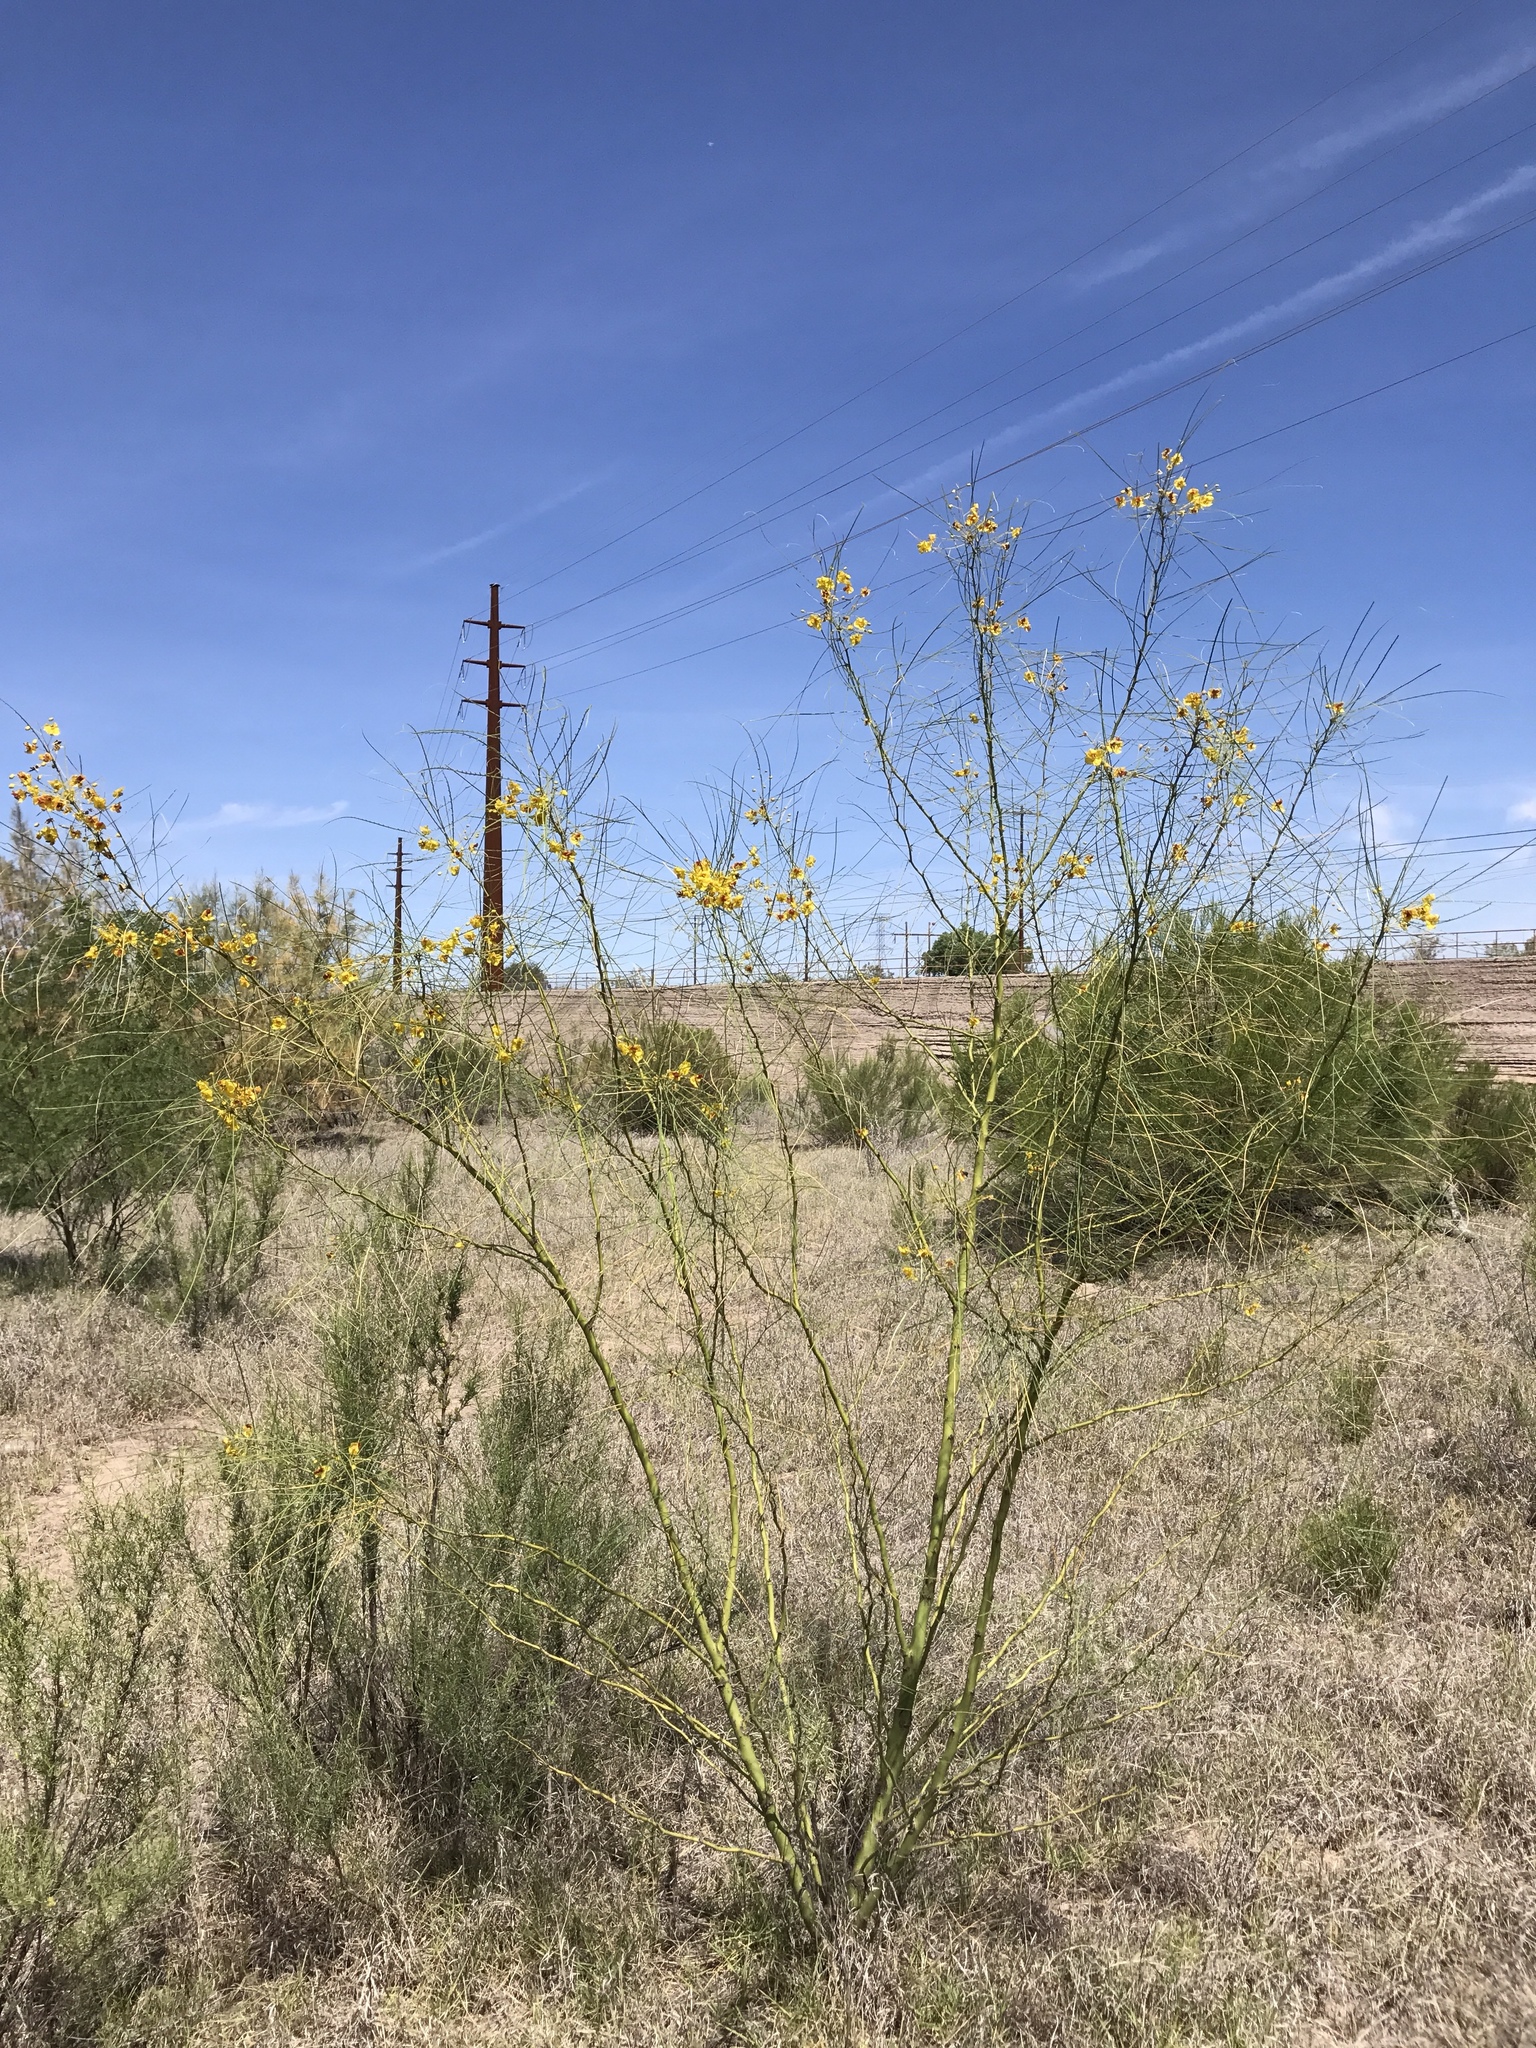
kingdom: Plantae
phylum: Tracheophyta
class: Magnoliopsida
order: Fabales
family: Fabaceae
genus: Parkinsonia
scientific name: Parkinsonia aculeata
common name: Jerusalem thorn
